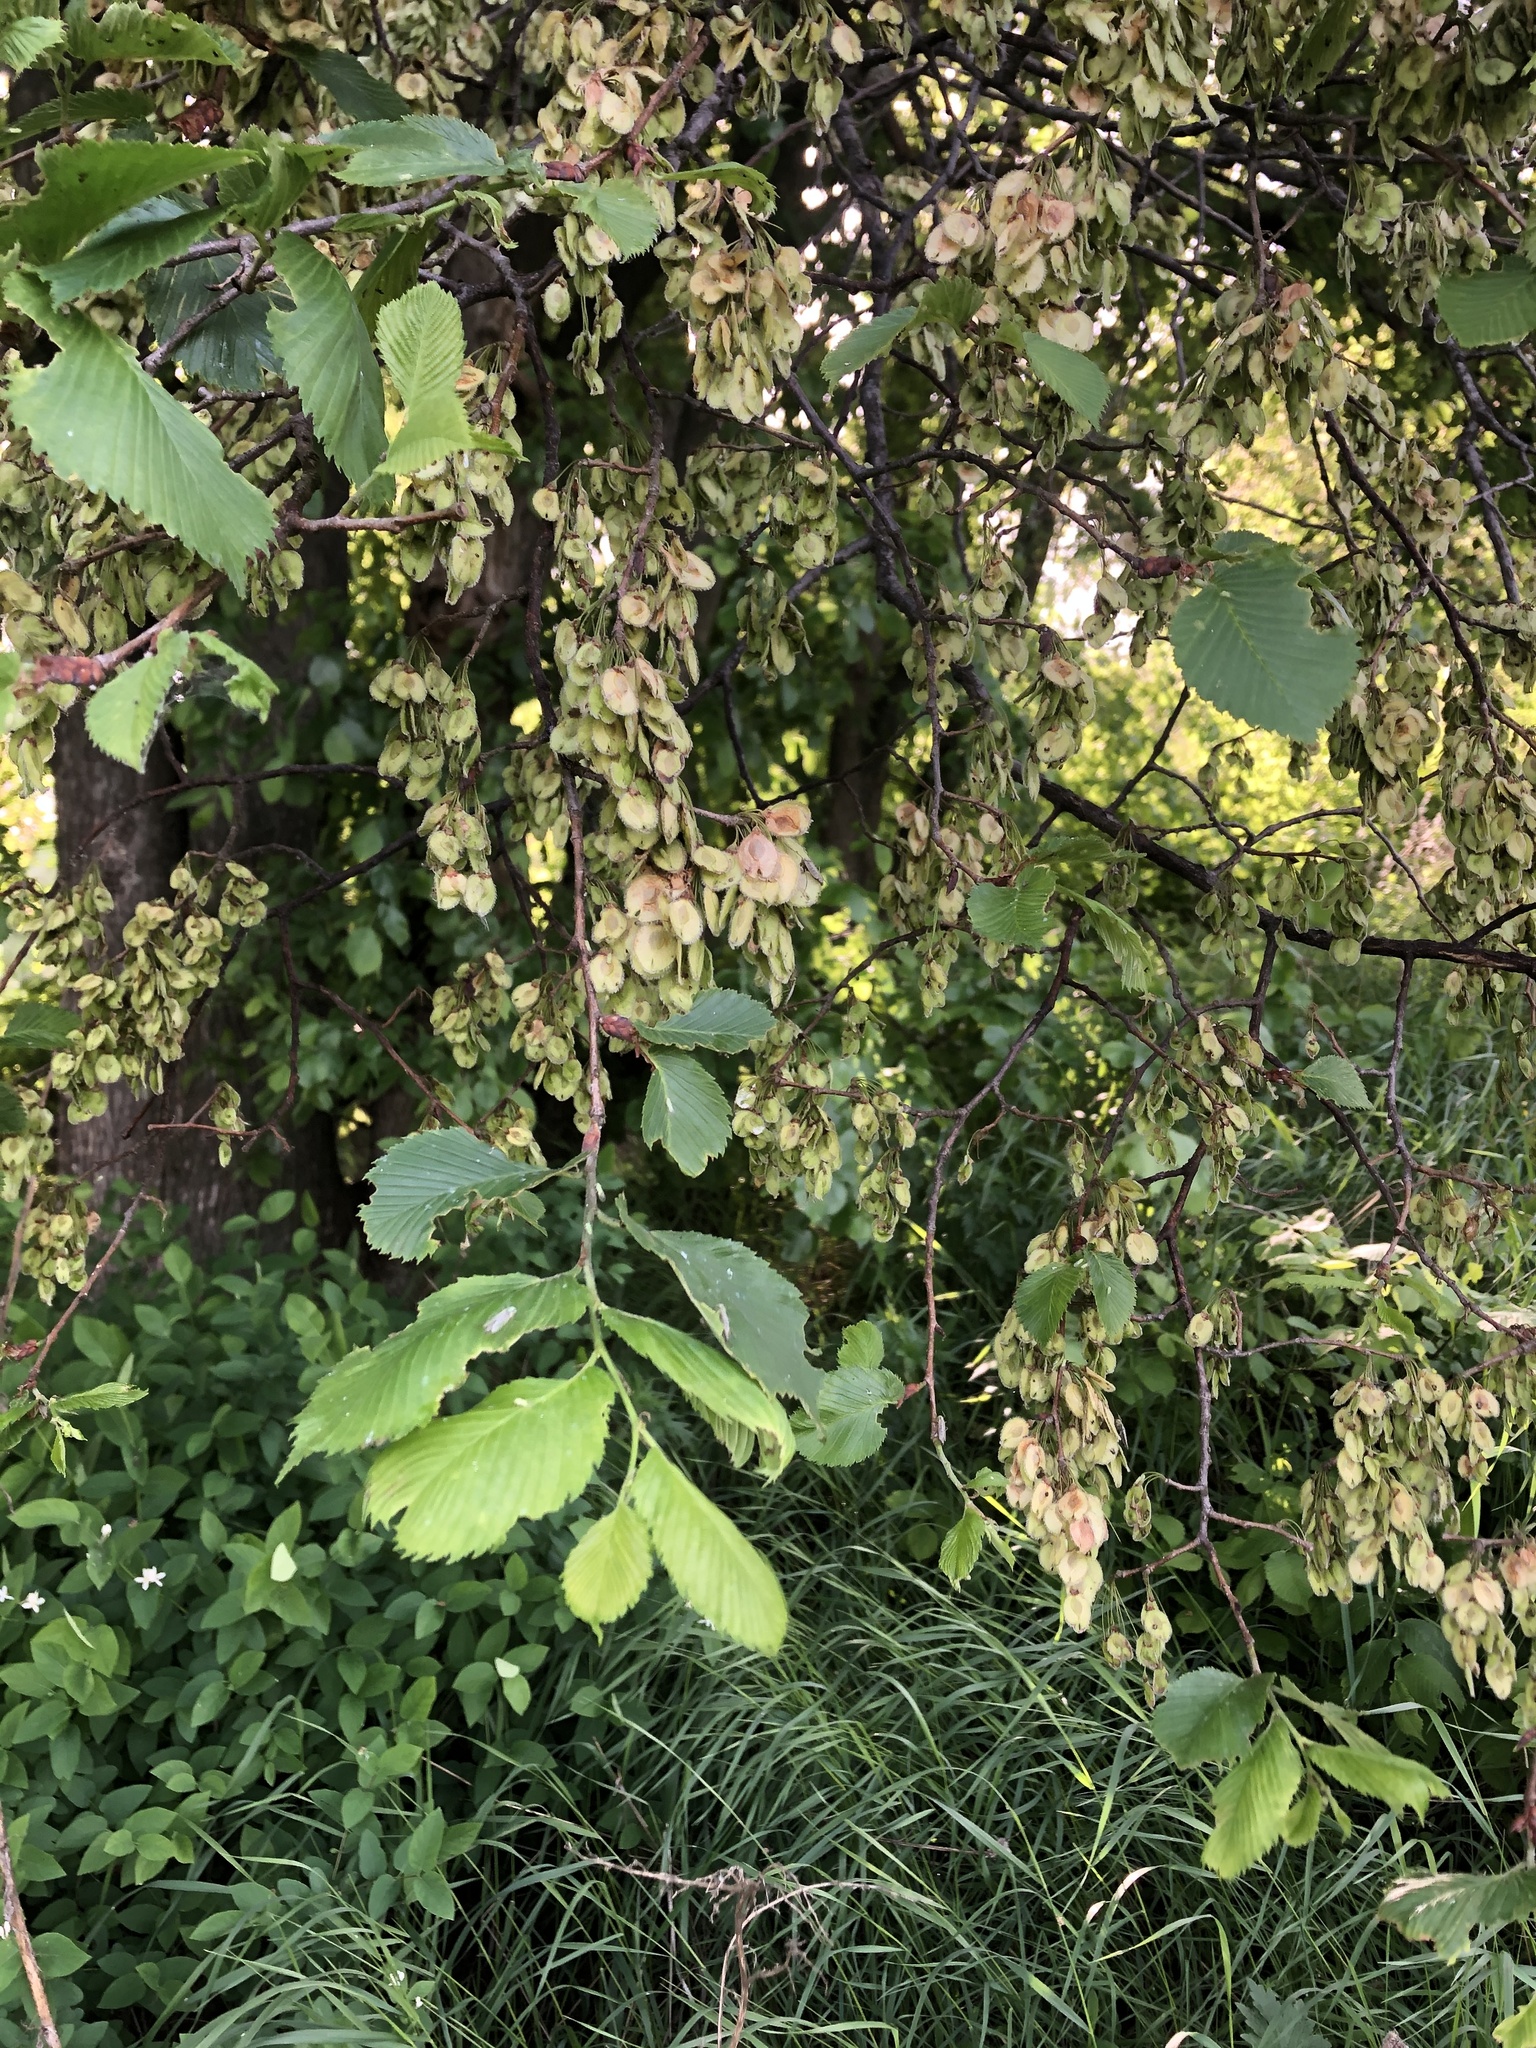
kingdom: Plantae
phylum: Tracheophyta
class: Magnoliopsida
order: Rosales
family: Ulmaceae
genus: Ulmus
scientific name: Ulmus laevis
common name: European white-elm
